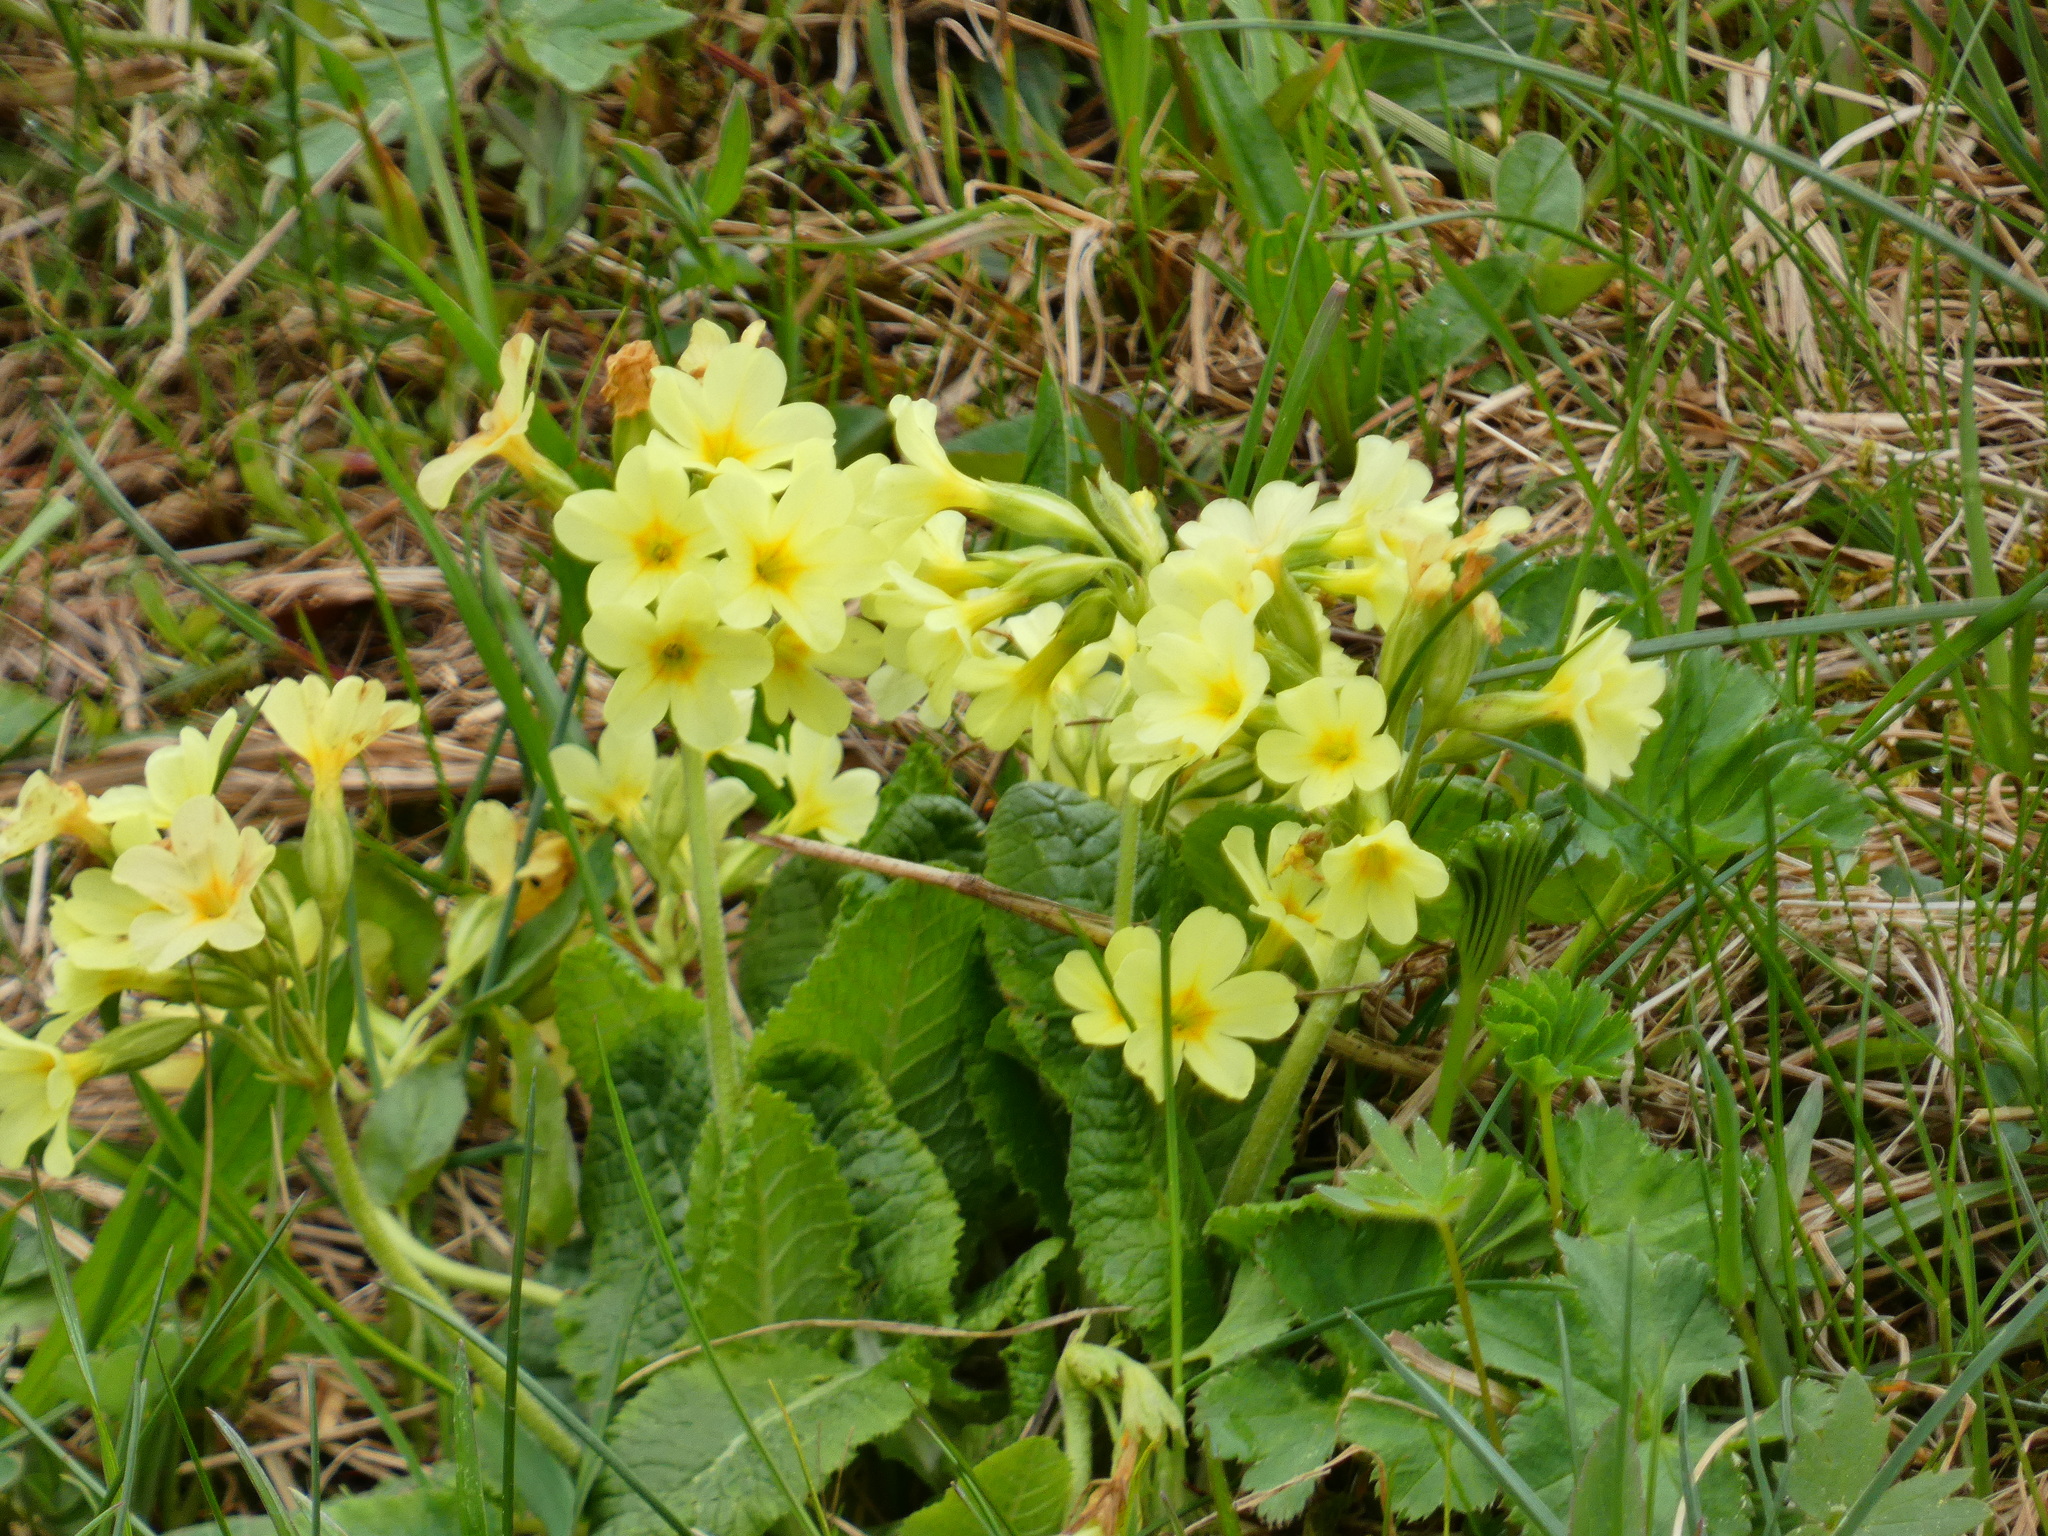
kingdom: Plantae
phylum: Tracheophyta
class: Magnoliopsida
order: Ericales
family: Primulaceae
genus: Primula
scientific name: Primula elatior
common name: Oxlip
